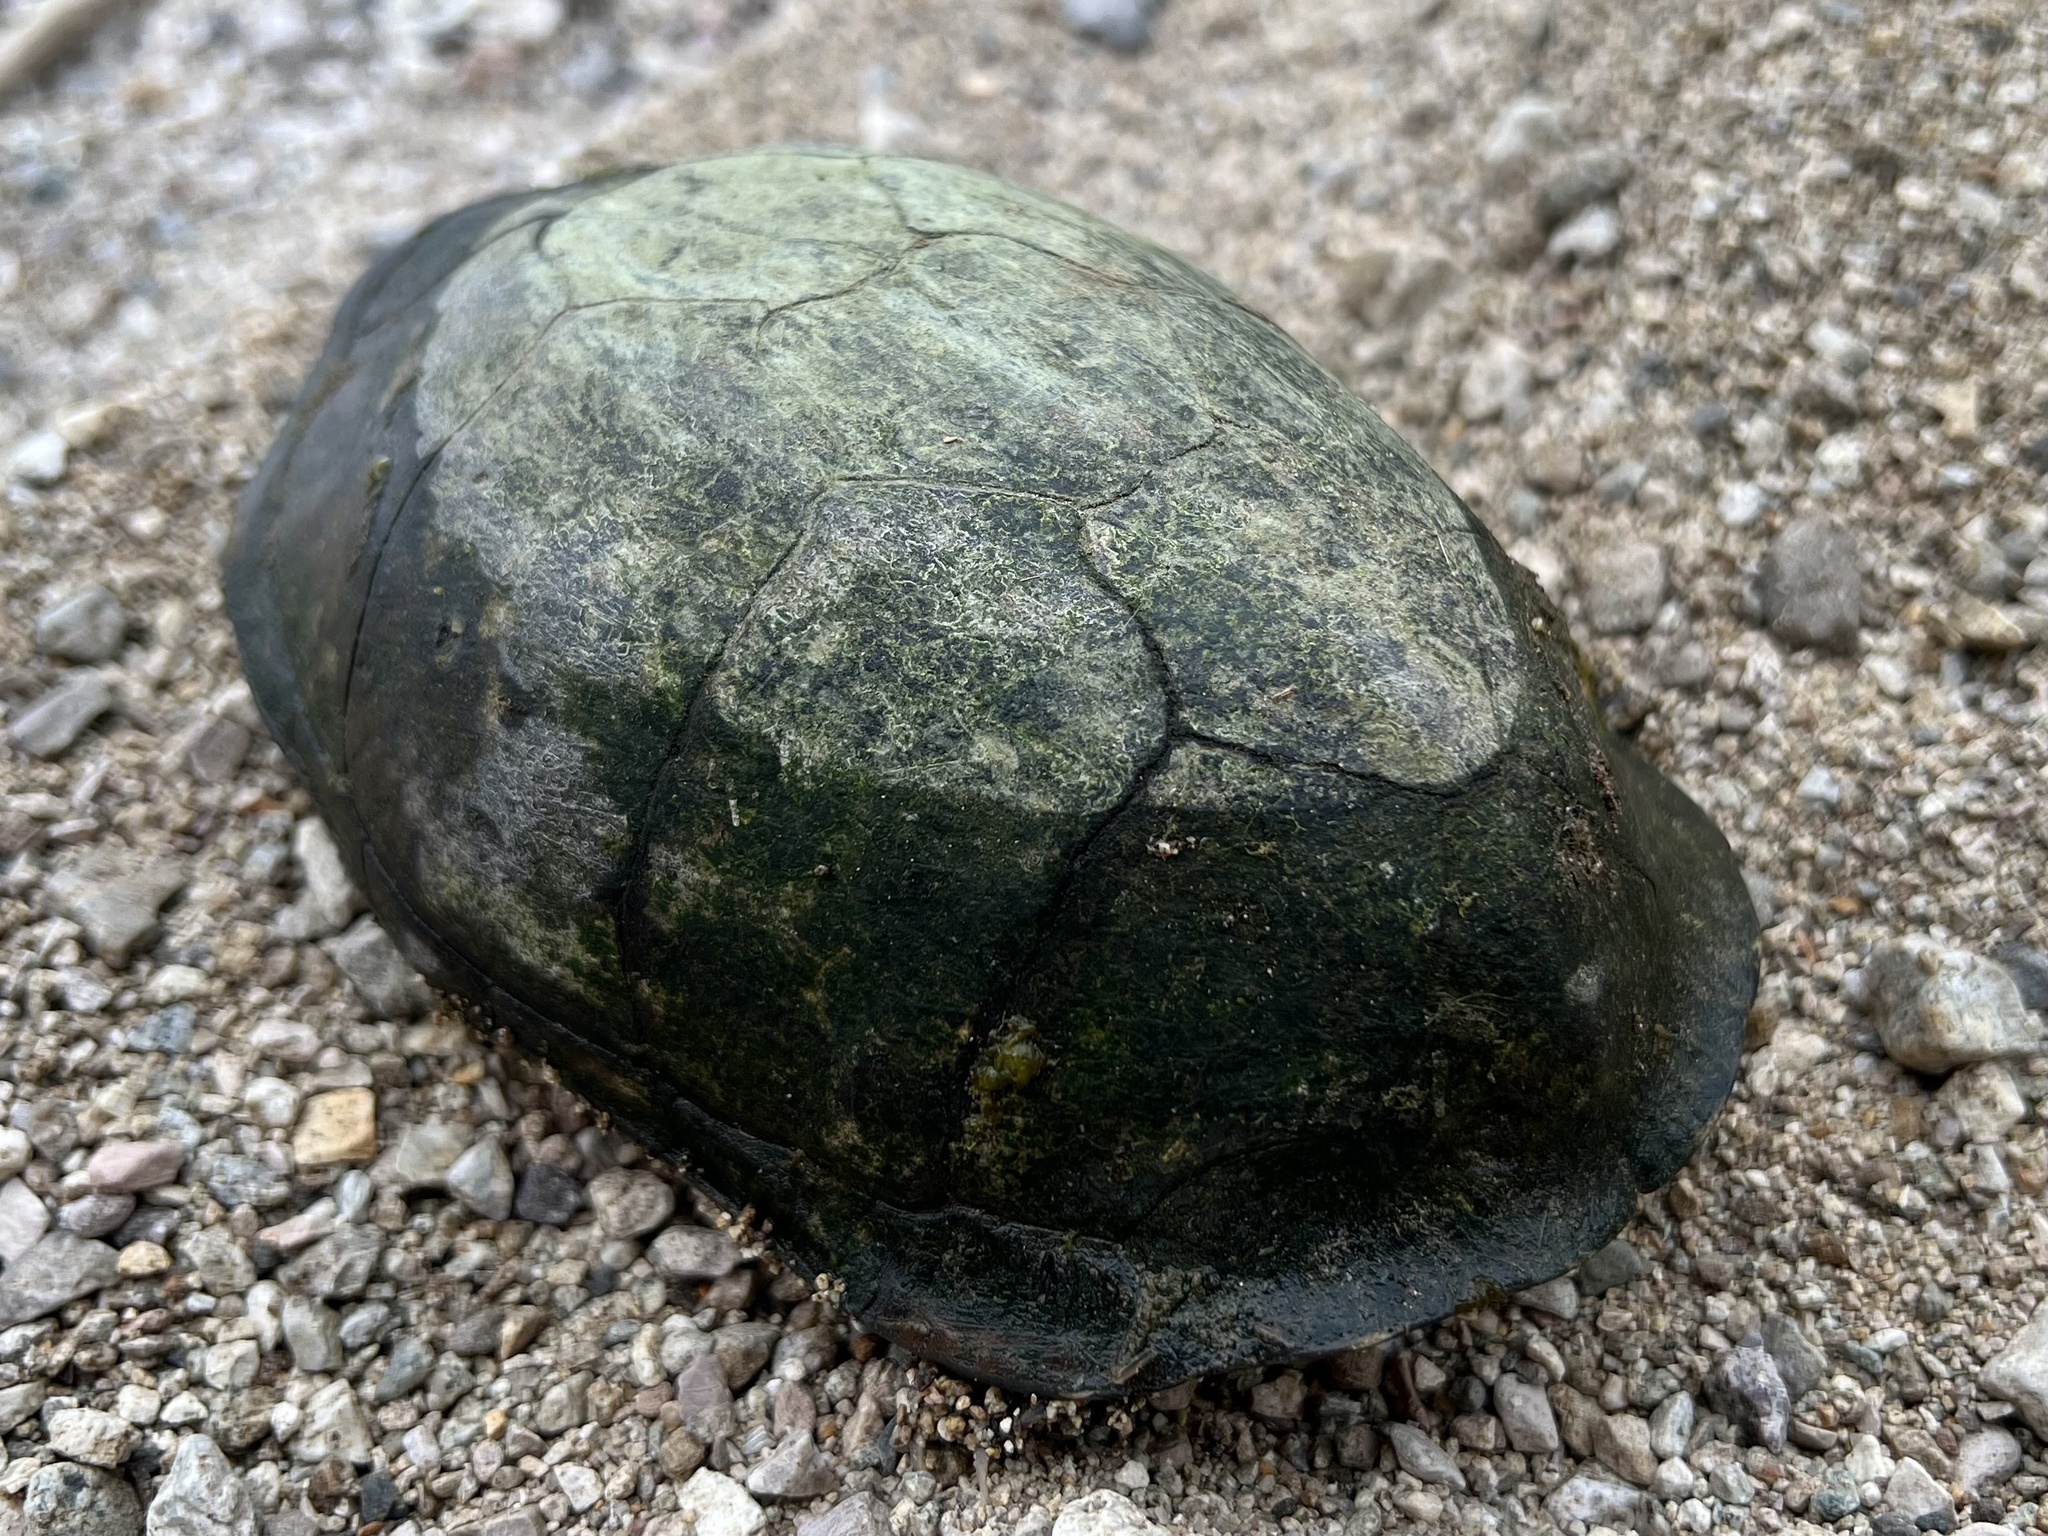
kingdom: Animalia
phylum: Chordata
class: Testudines
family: Kinosternidae
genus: Kinosternon
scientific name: Kinosternon integrum
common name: Mexican mud turtle
